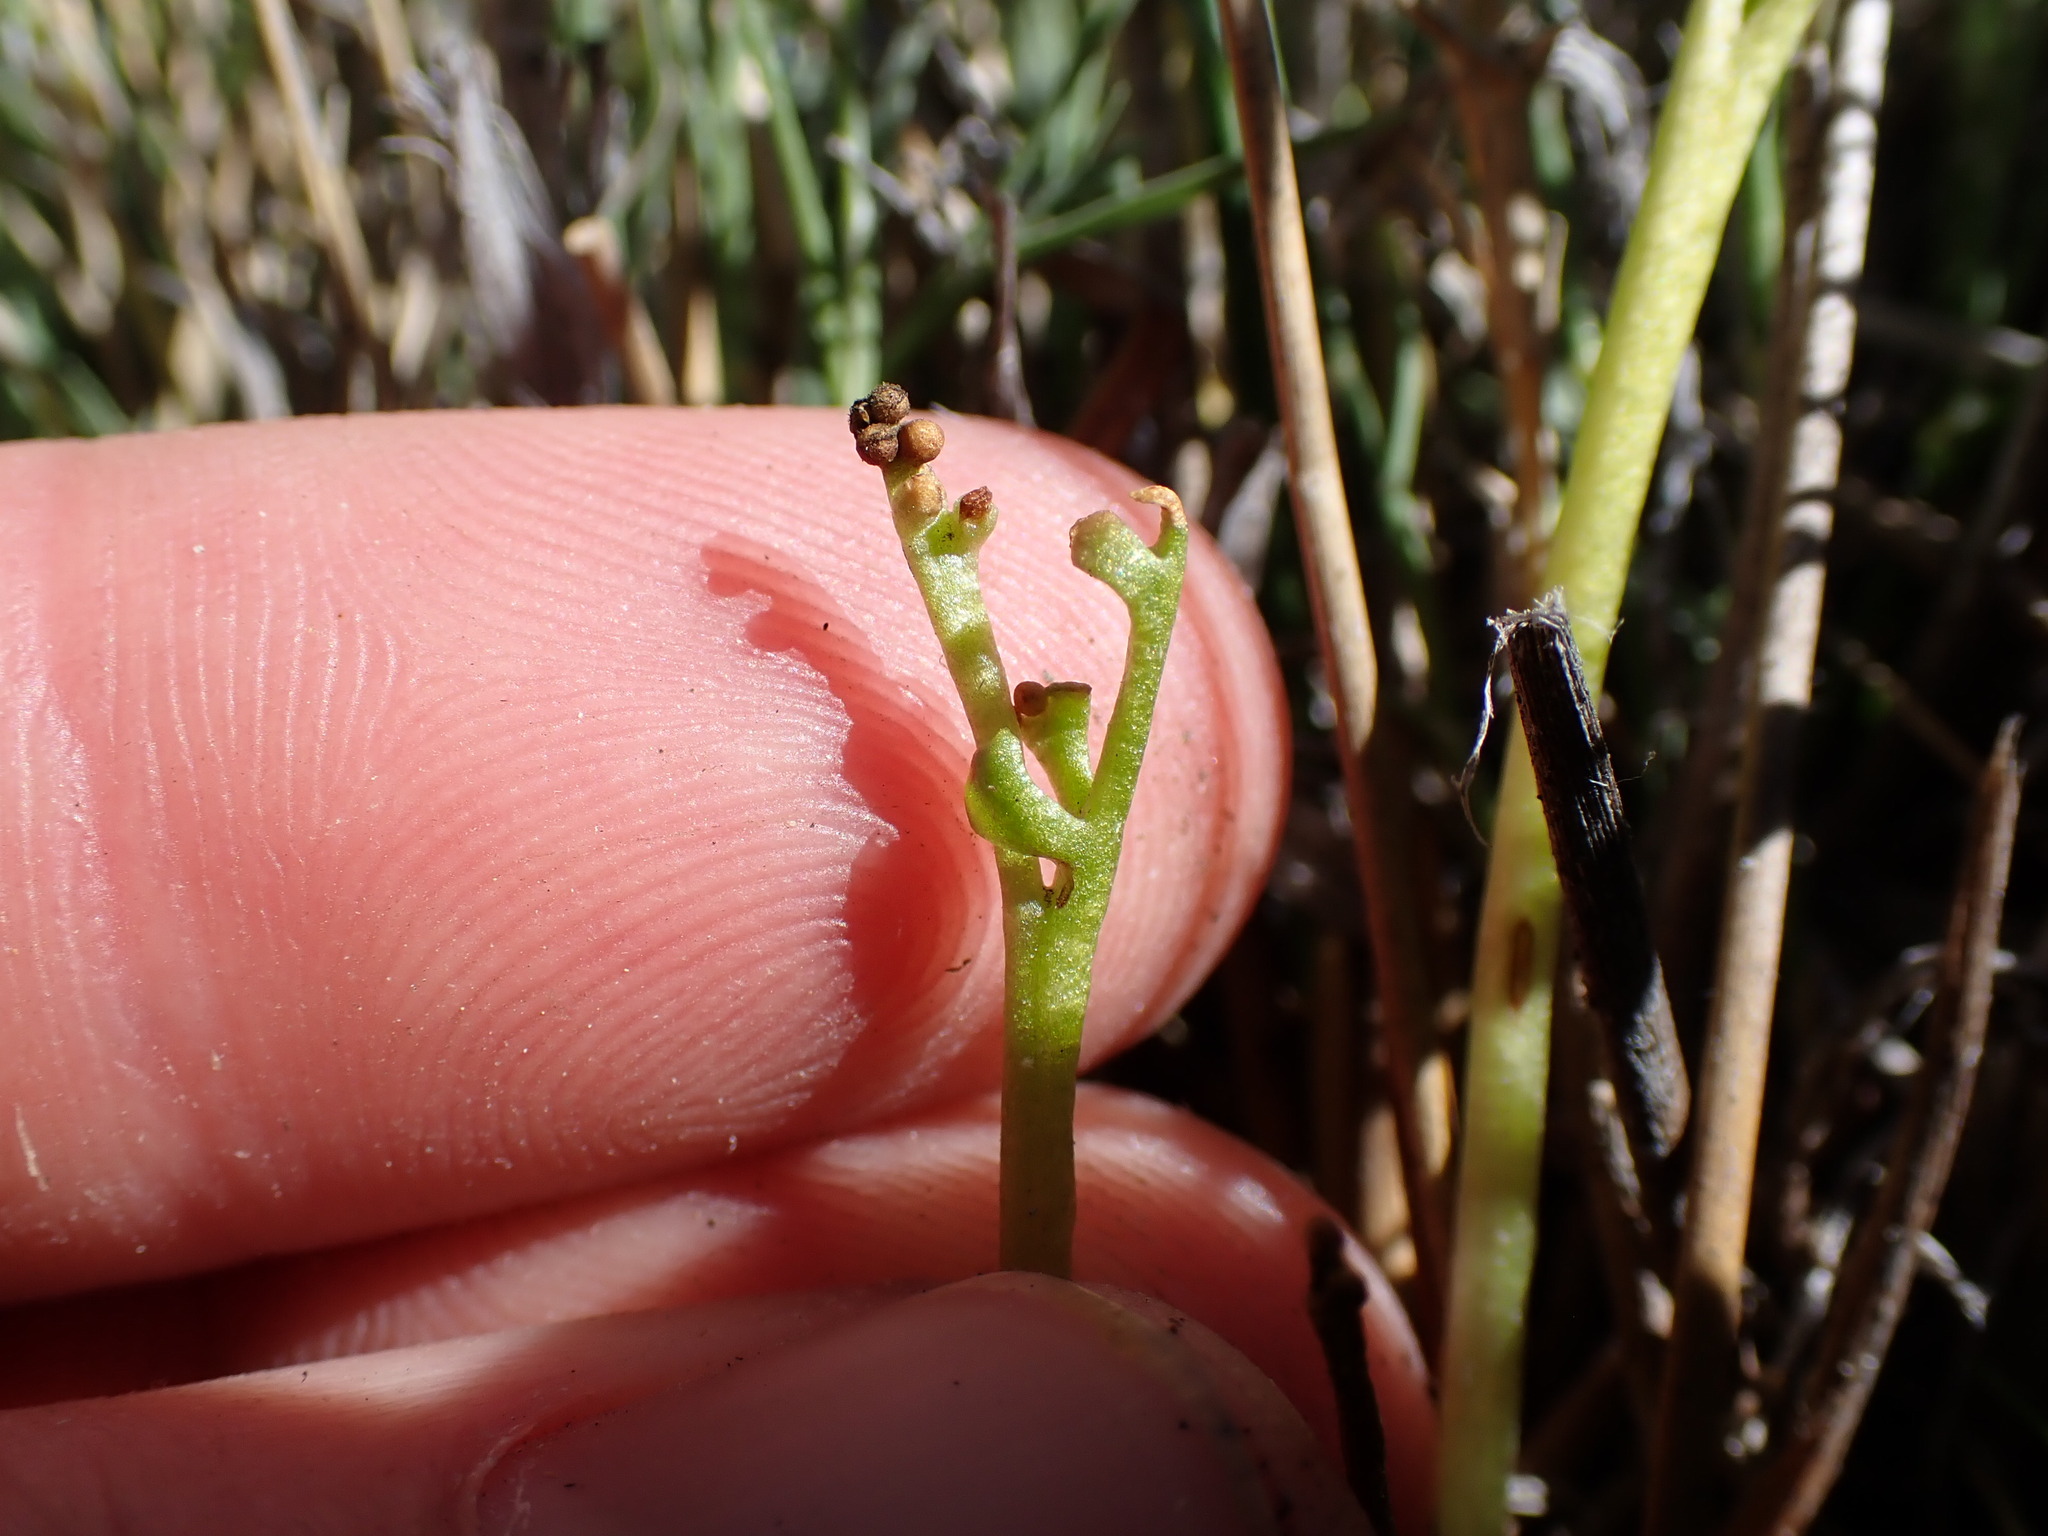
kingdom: Plantae
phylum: Tracheophyta
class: Polypodiopsida
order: Ophioglossales
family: Ophioglossaceae
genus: Botrychium
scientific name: Botrychium ascendens
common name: Ascending grapefern
